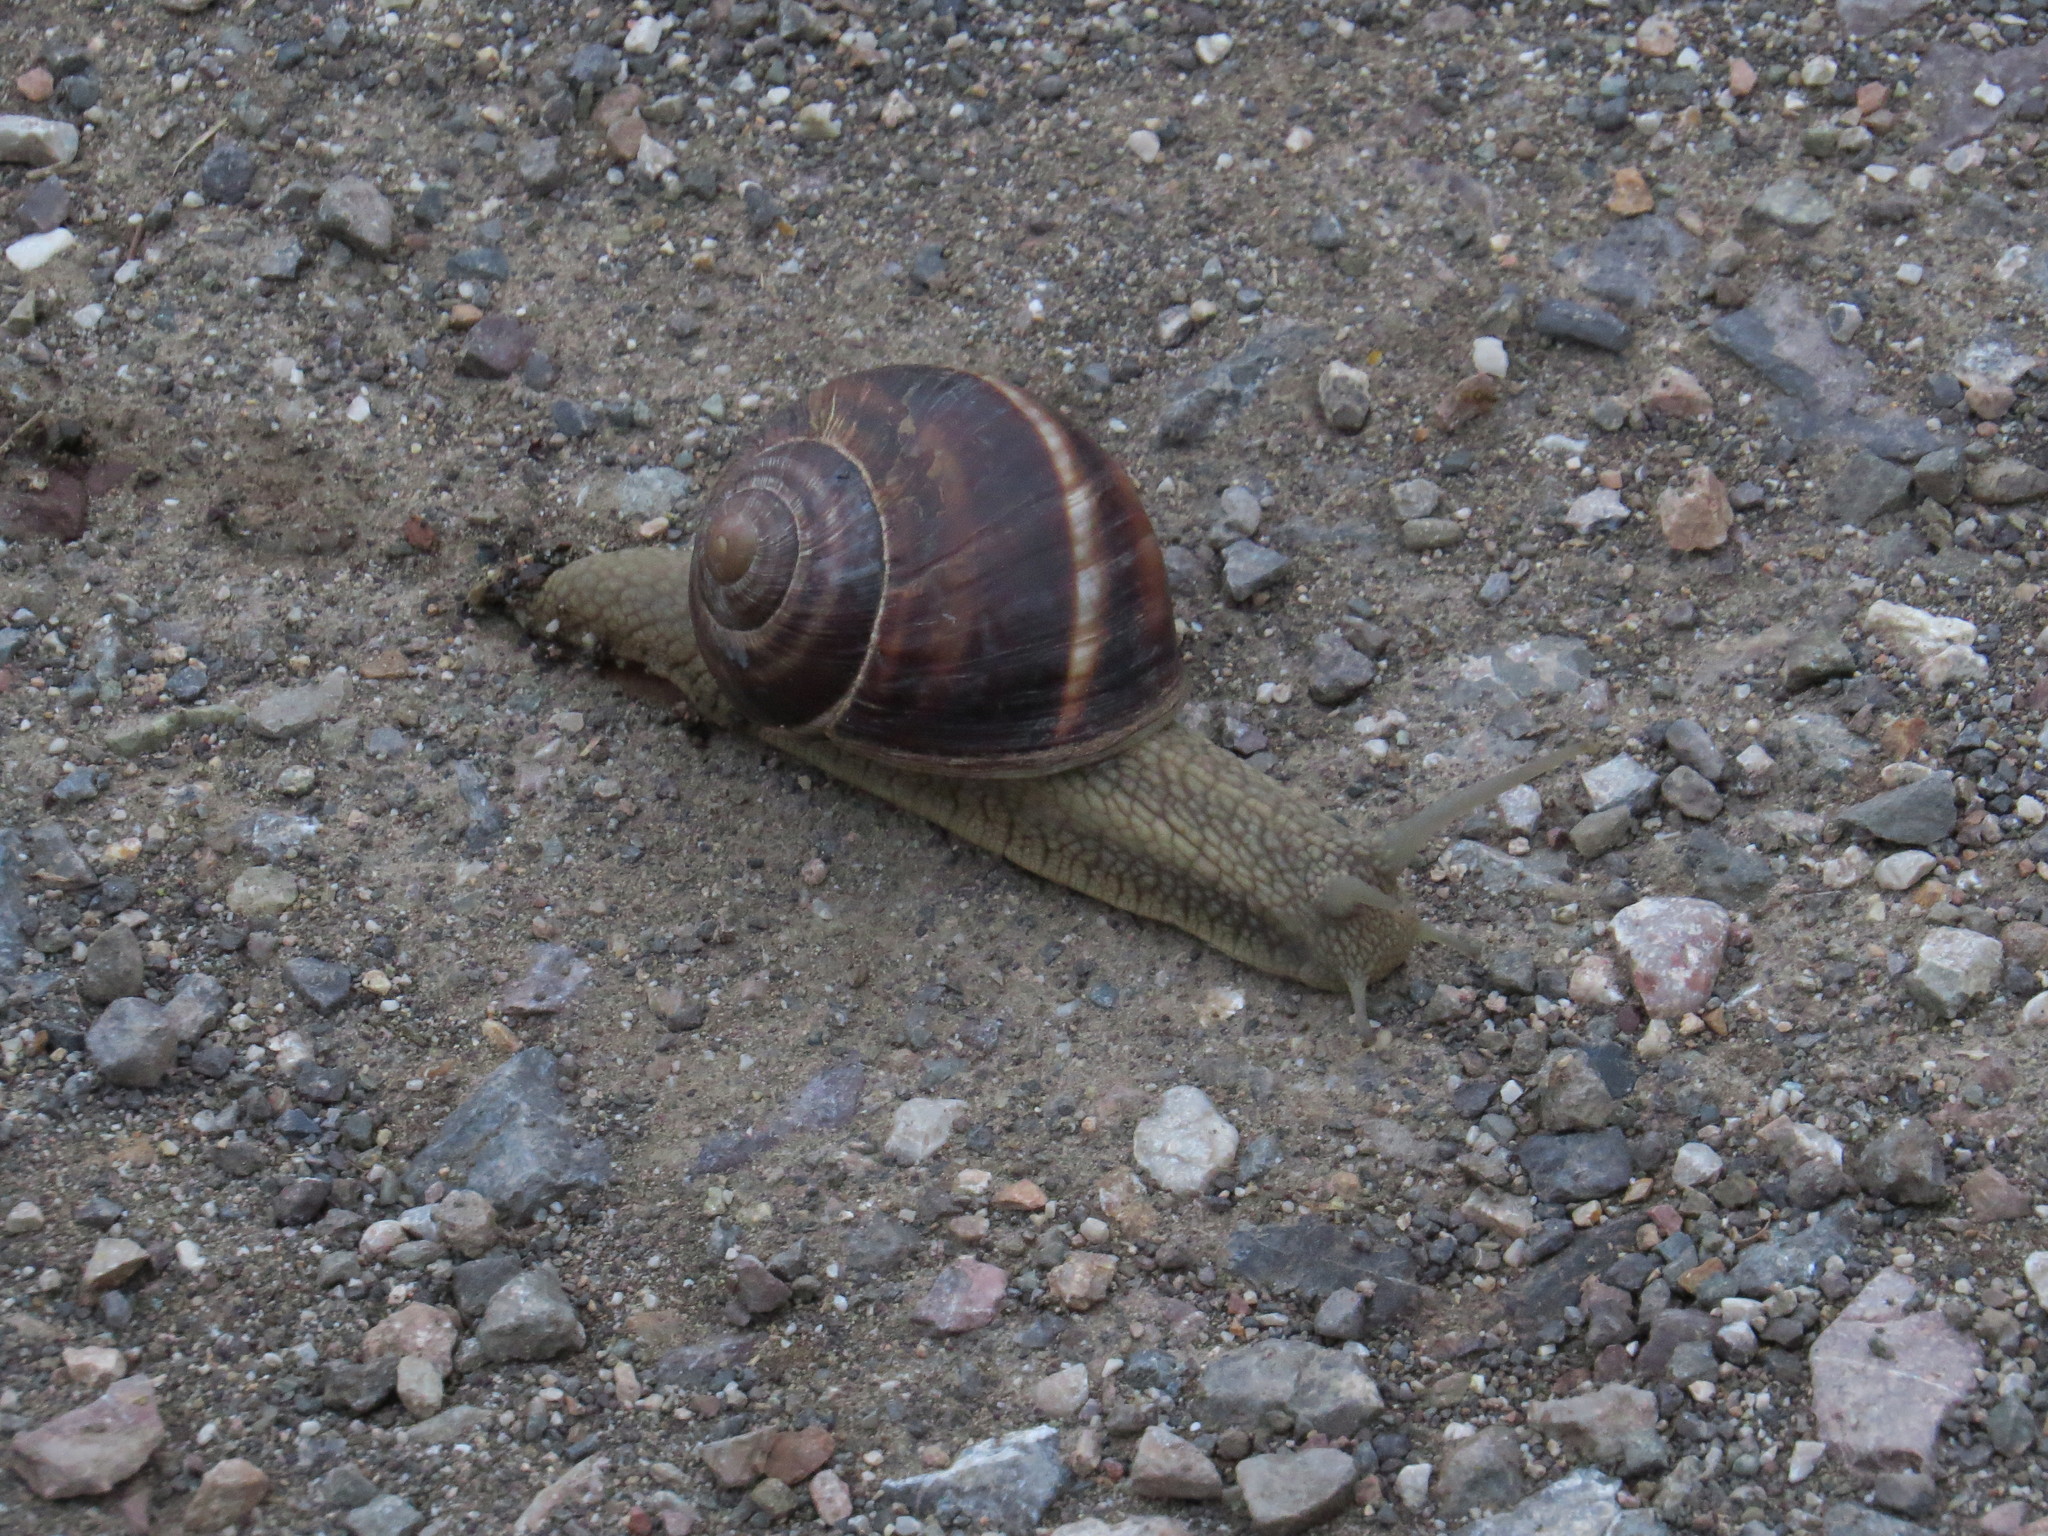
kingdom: Animalia
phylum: Mollusca
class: Gastropoda
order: Stylommatophora
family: Helicidae
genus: Helix
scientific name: Helix lucorum
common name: Turkish snail
